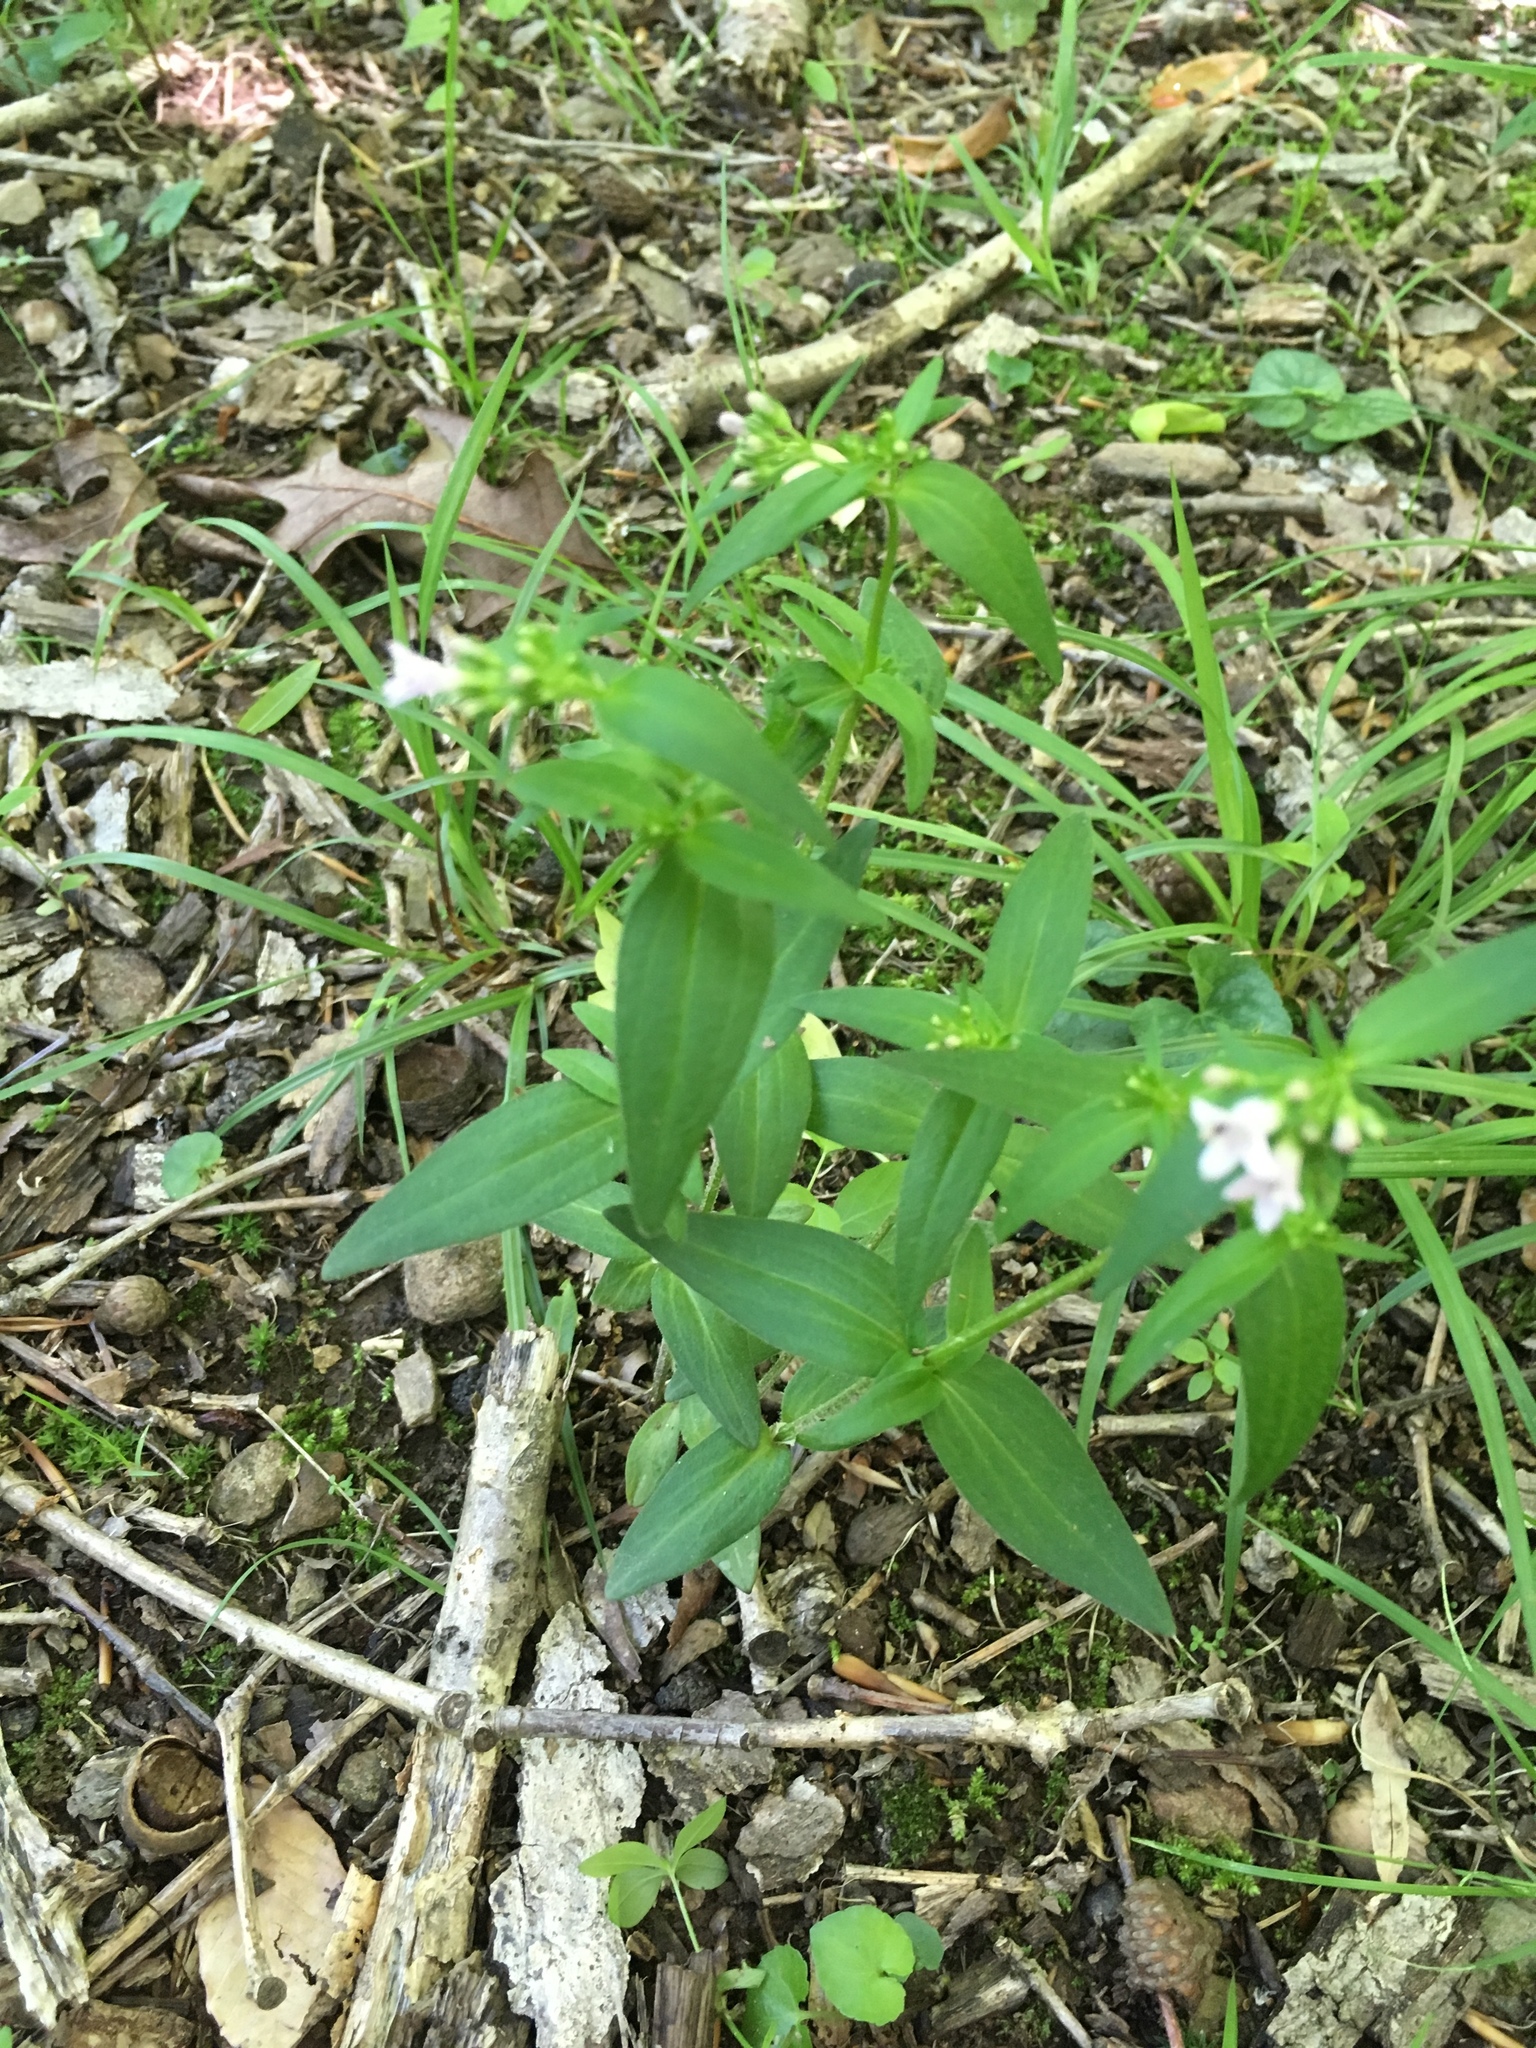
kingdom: Plantae
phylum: Tracheophyta
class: Magnoliopsida
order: Gentianales
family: Rubiaceae
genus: Houstonia
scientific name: Houstonia purpurea
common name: Summer bluet
